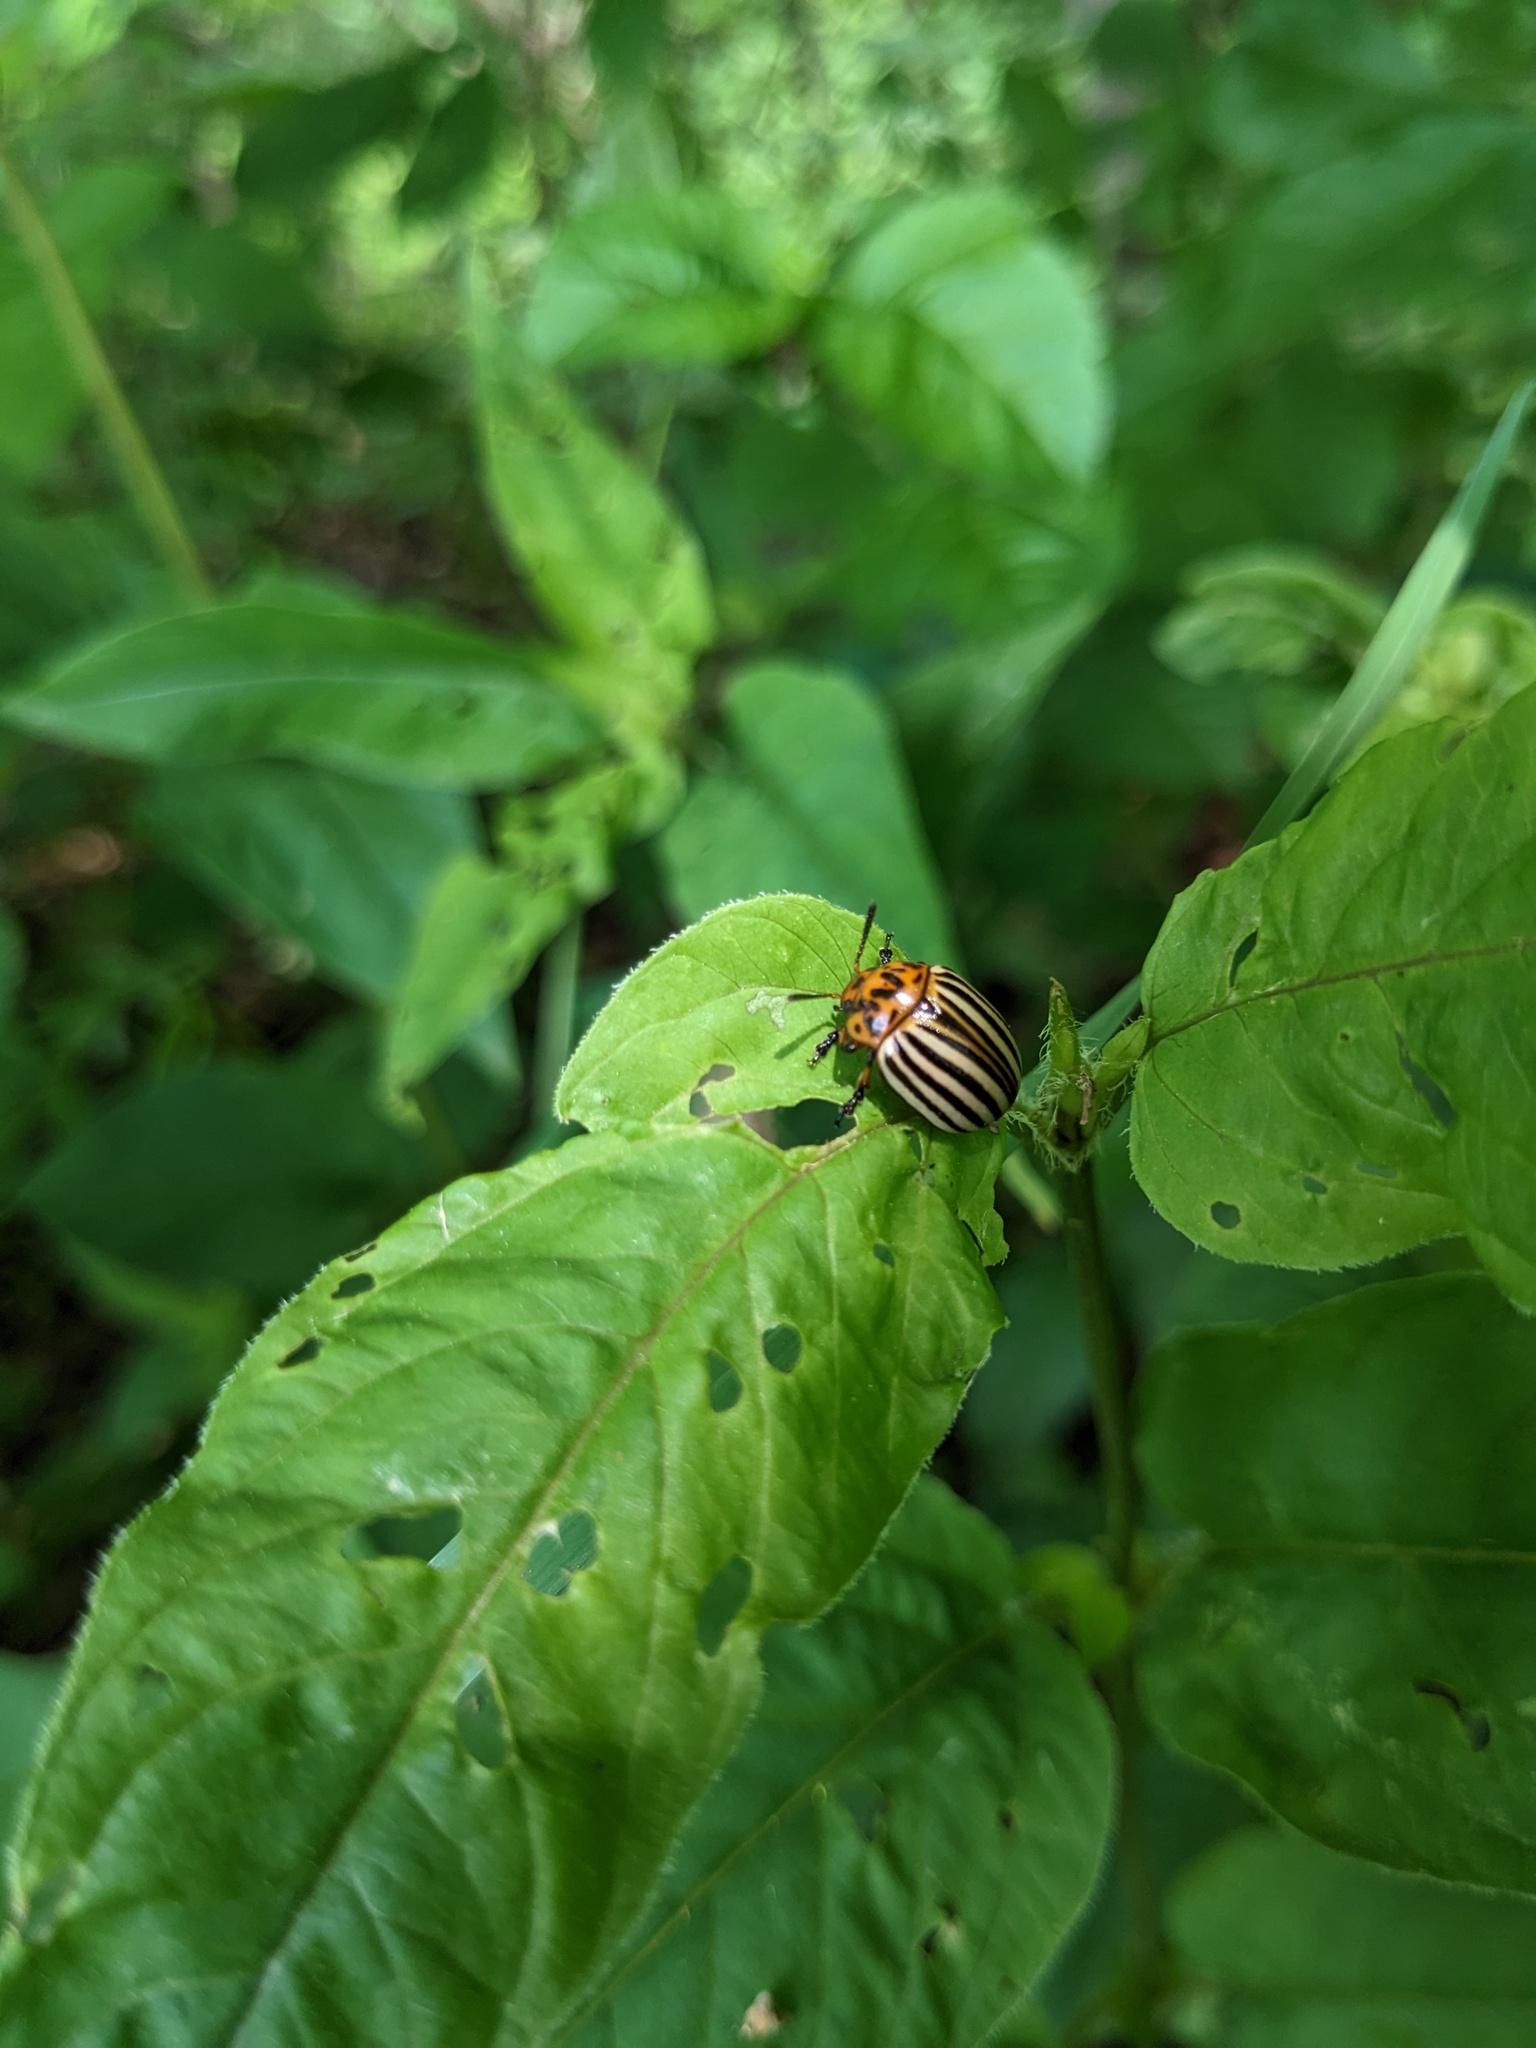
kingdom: Animalia
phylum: Arthropoda
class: Insecta
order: Coleoptera
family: Chrysomelidae
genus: Leptinotarsa
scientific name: Leptinotarsa decemlineata
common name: Colorado potato beetle
